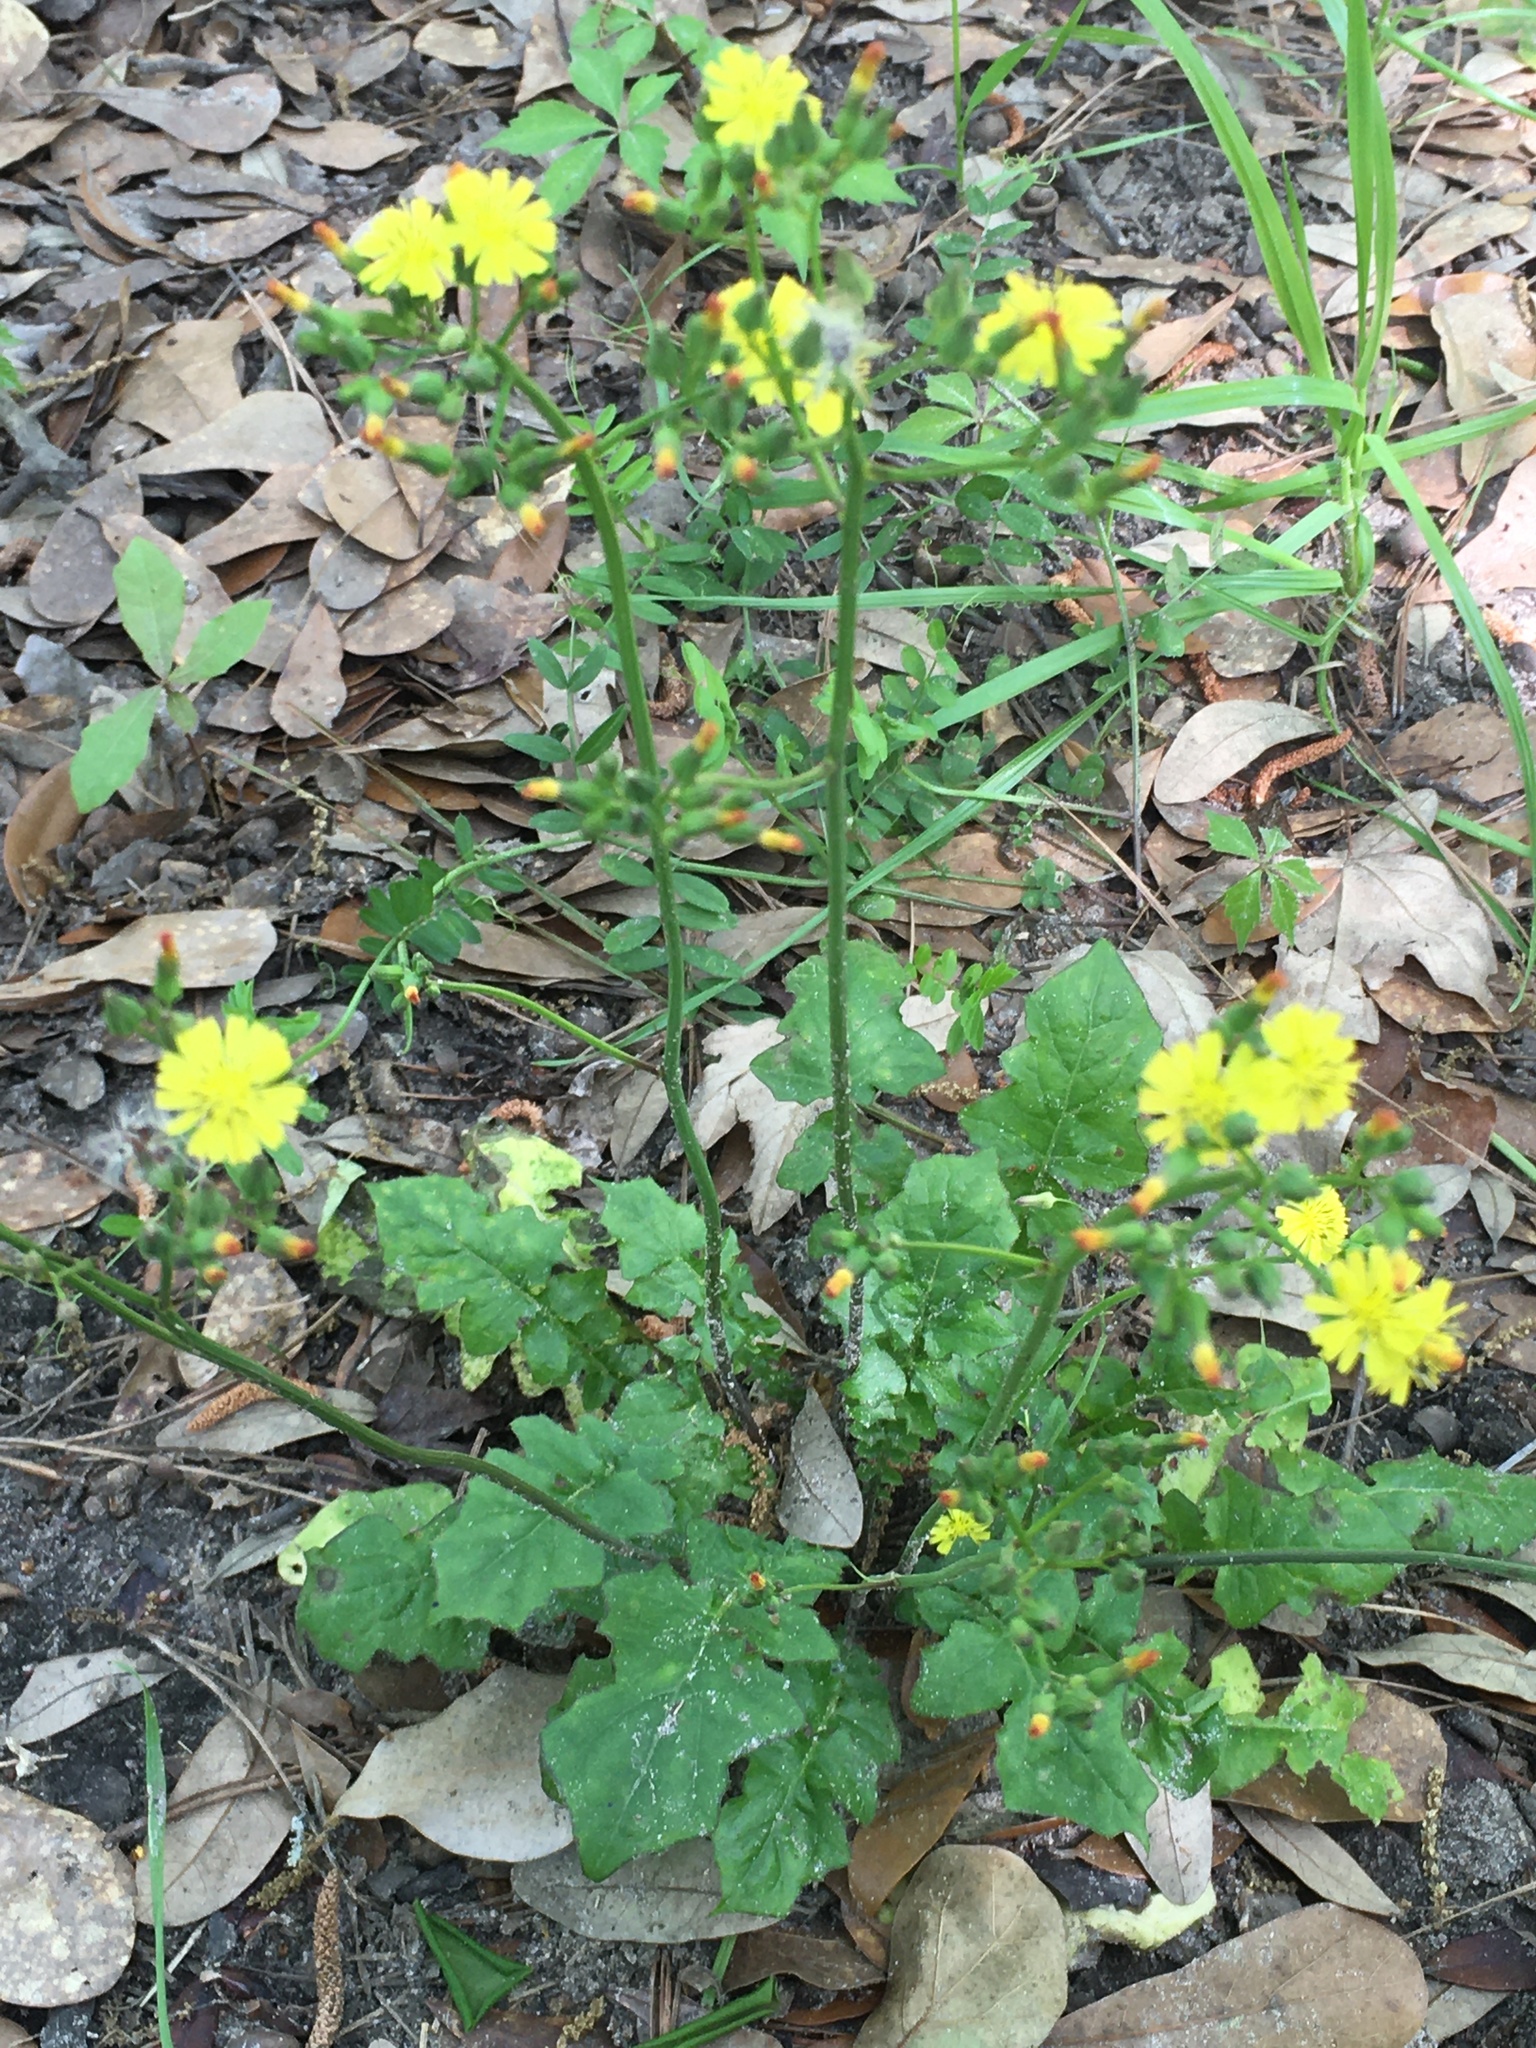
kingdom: Plantae
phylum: Tracheophyta
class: Magnoliopsida
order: Asterales
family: Asteraceae
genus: Youngia
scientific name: Youngia japonica
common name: Oriental false hawksbeard
